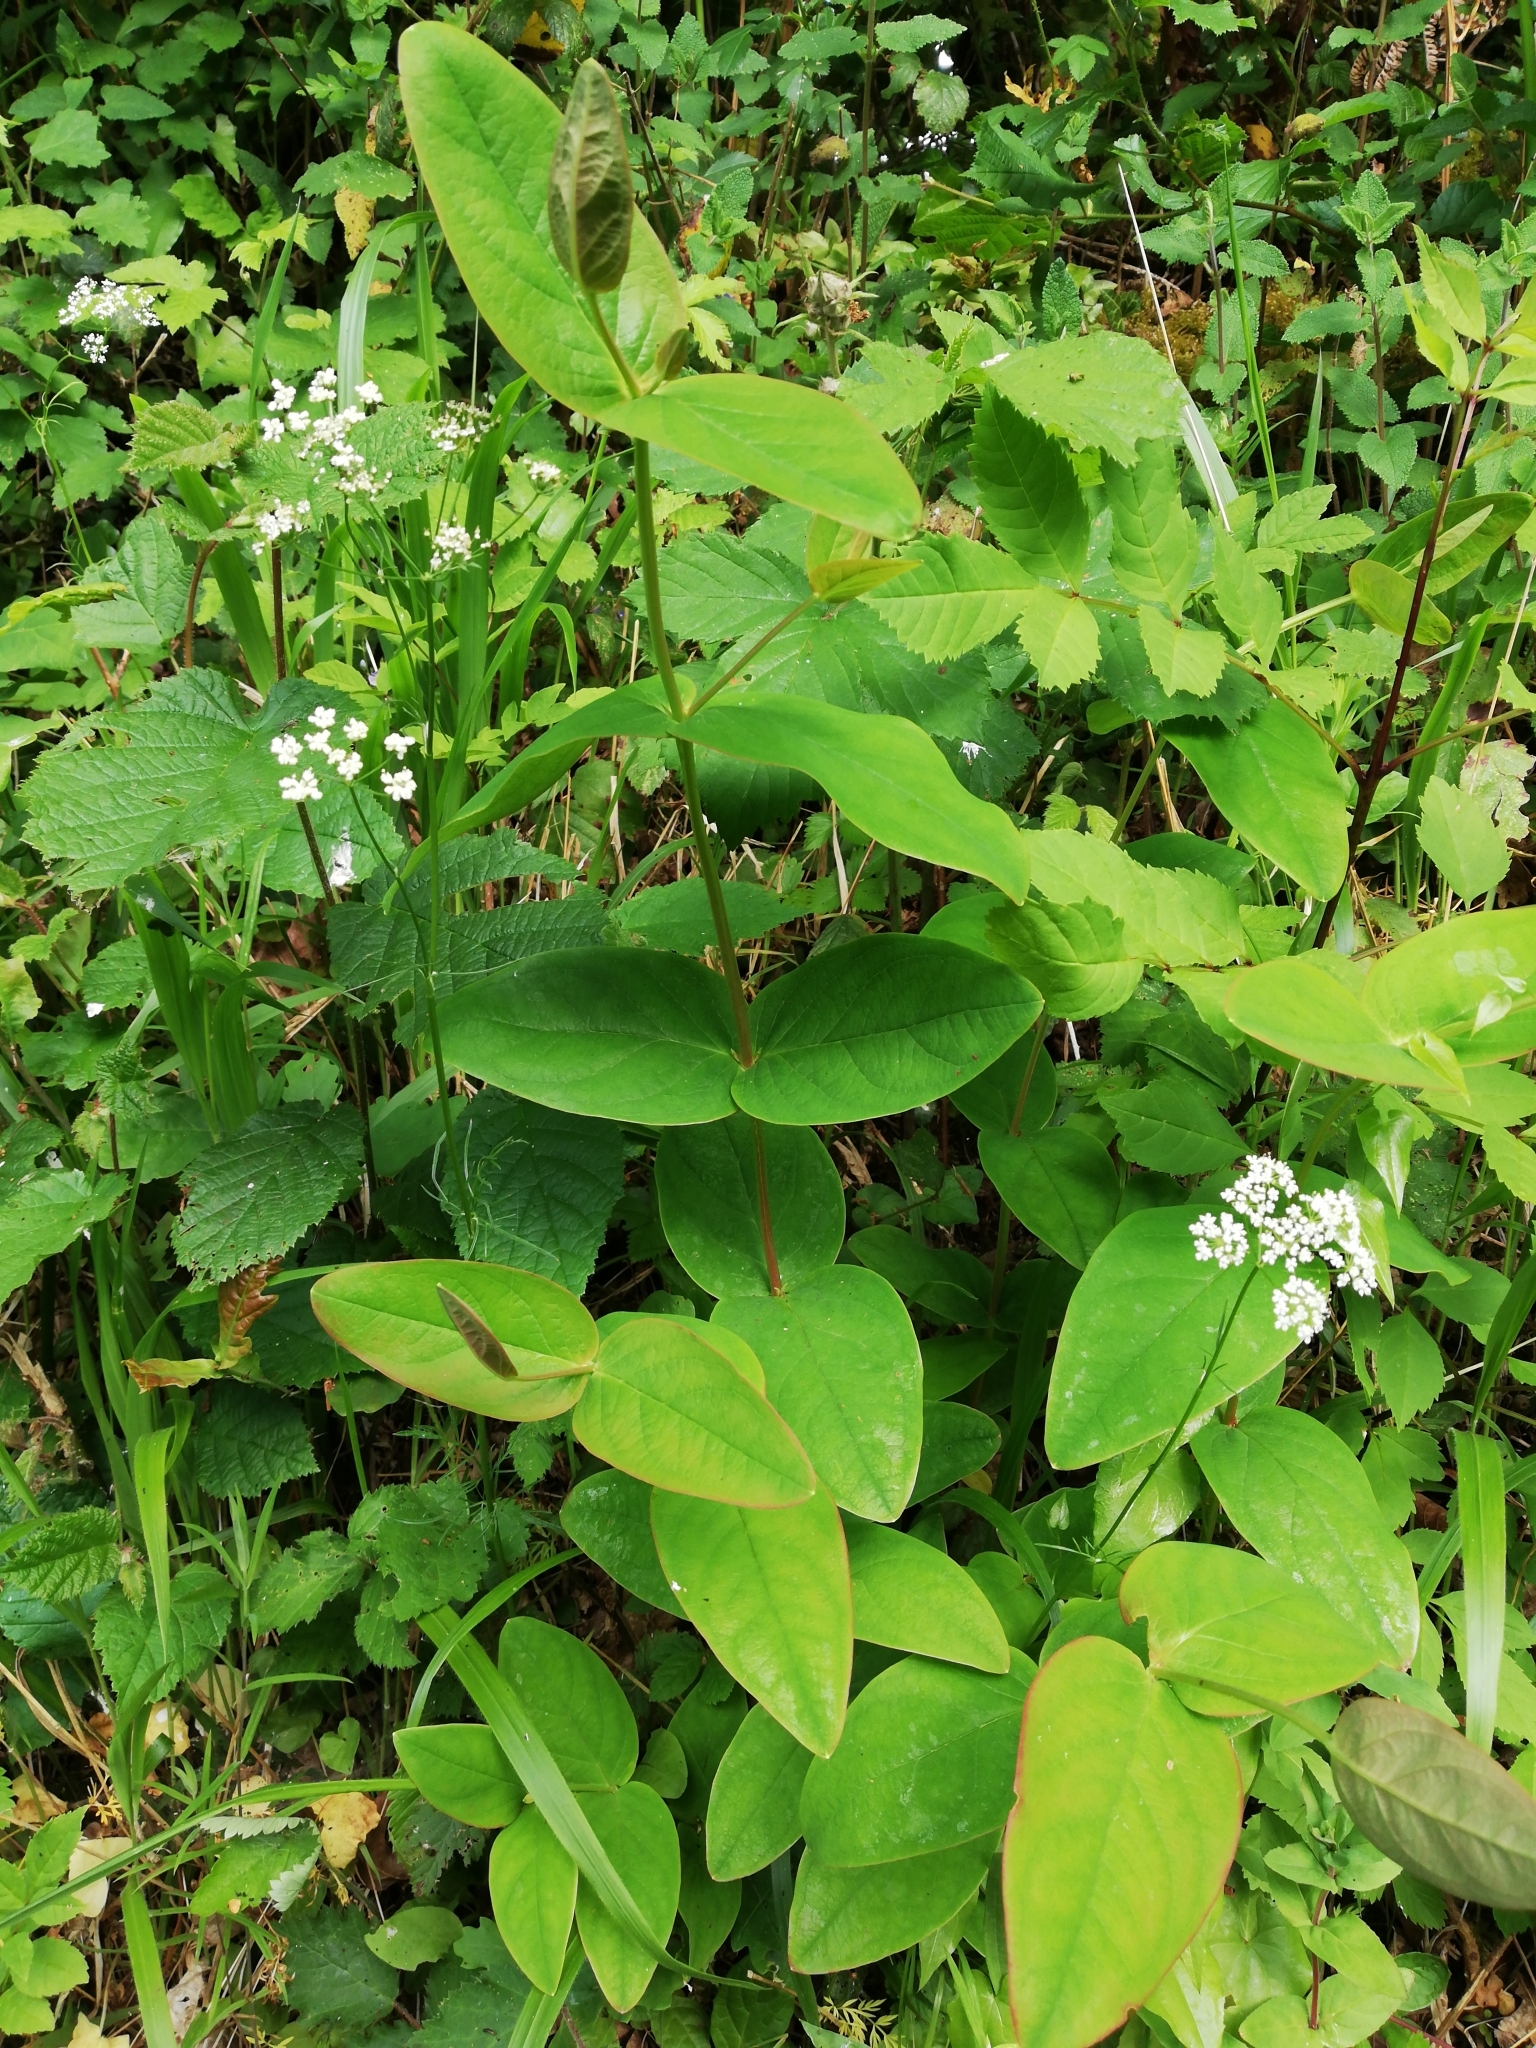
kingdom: Plantae
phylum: Tracheophyta
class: Magnoliopsida
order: Malpighiales
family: Hypericaceae
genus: Hypericum
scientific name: Hypericum androsaemum
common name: Sweet-amber
